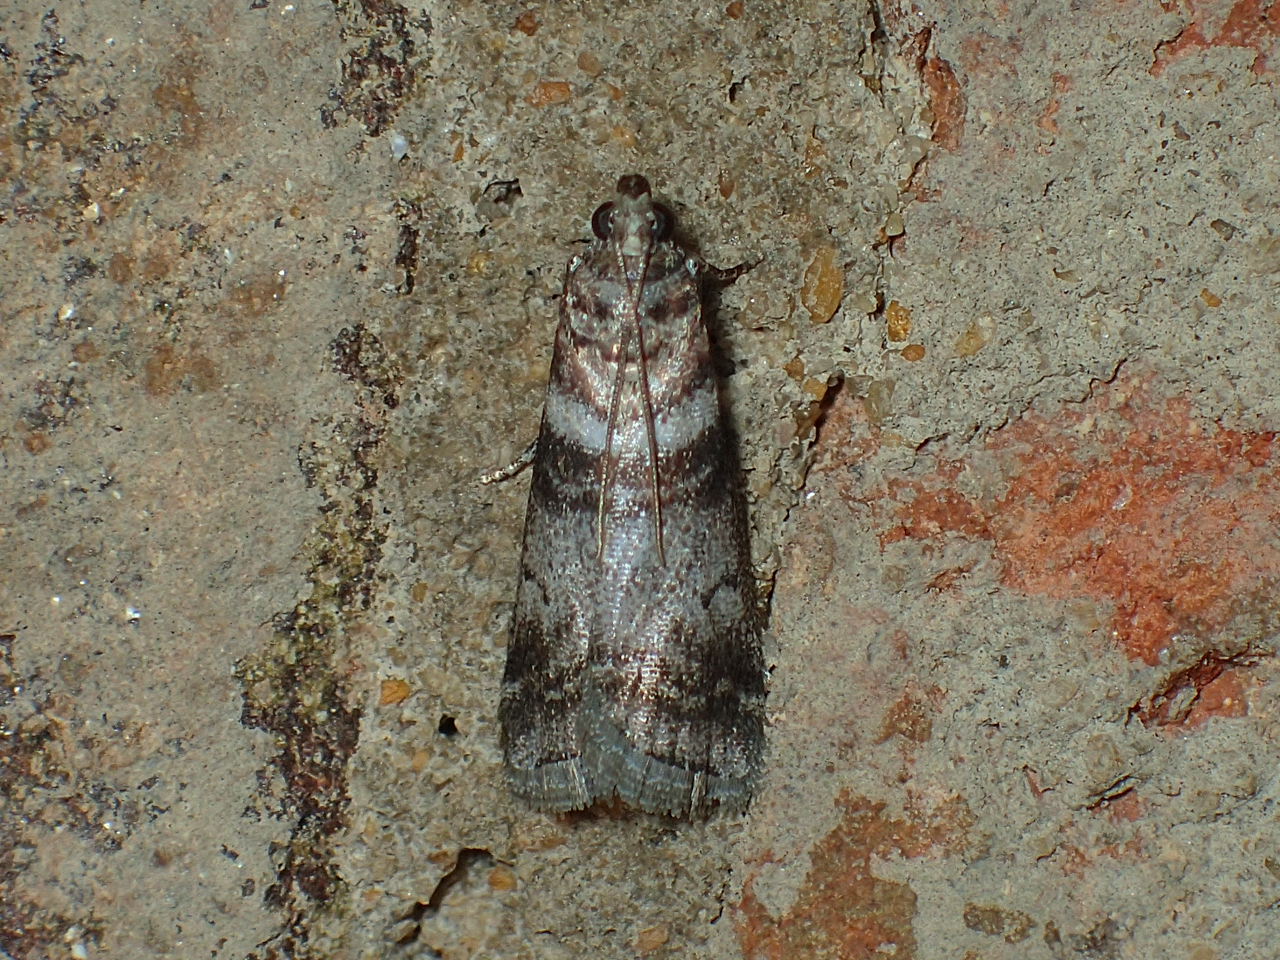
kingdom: Animalia
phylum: Arthropoda
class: Insecta
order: Lepidoptera
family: Pyralidae
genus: Sciota
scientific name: Sciota uvinella
